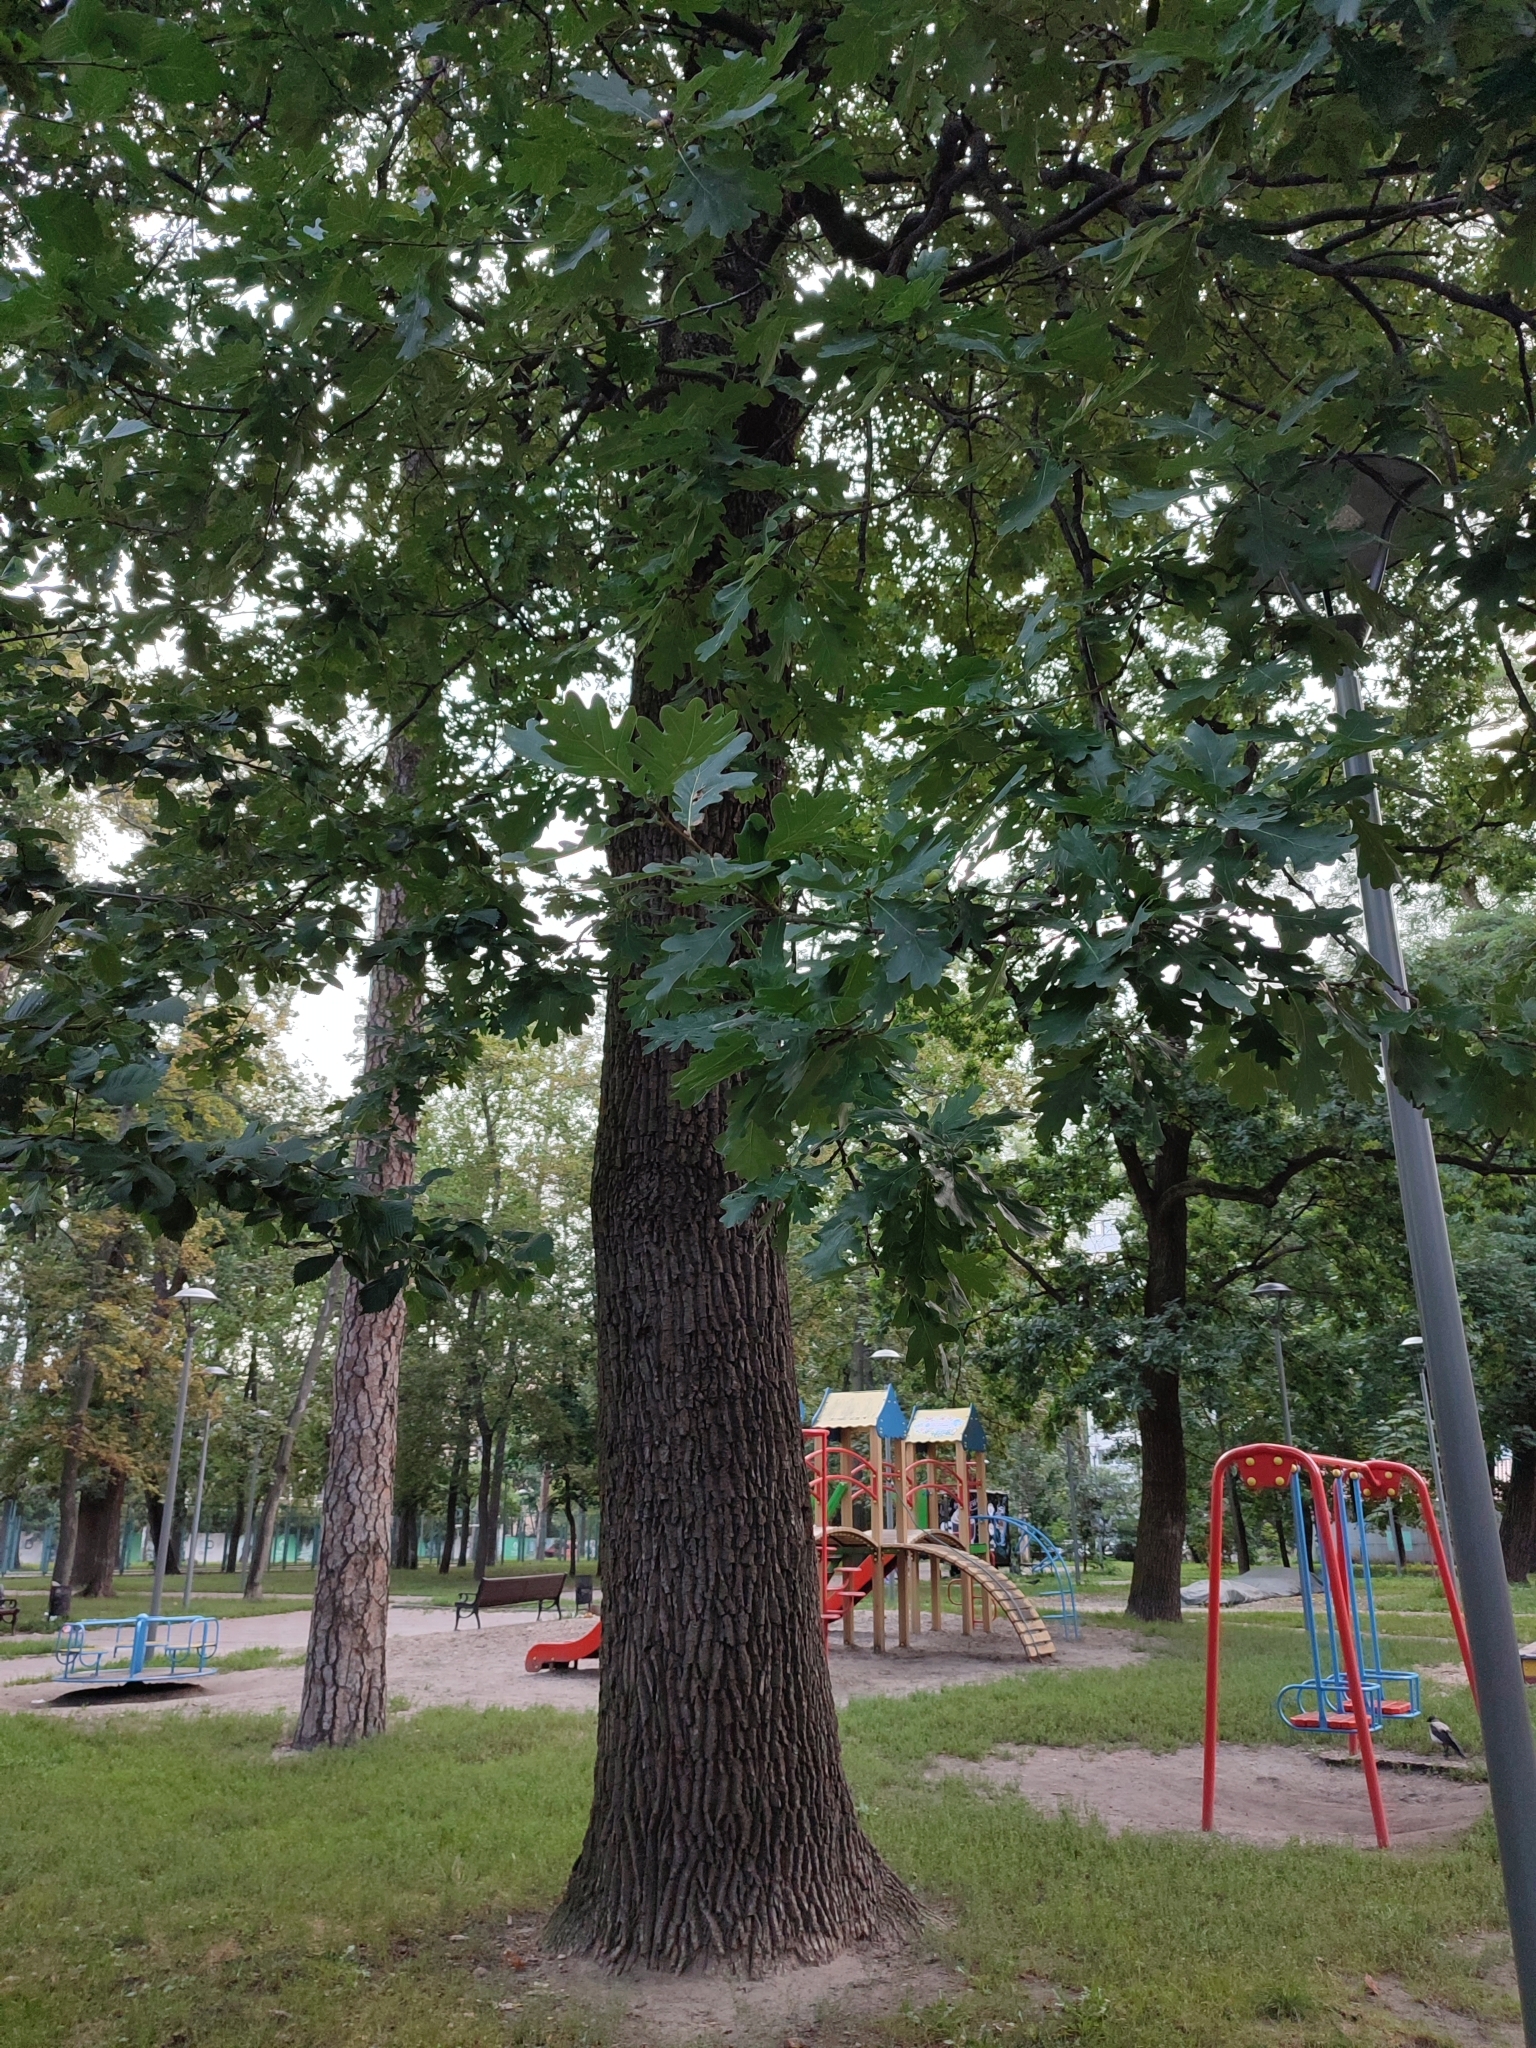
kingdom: Plantae
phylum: Tracheophyta
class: Magnoliopsida
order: Fagales
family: Fagaceae
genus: Quercus
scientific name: Quercus robur
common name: Pedunculate oak
